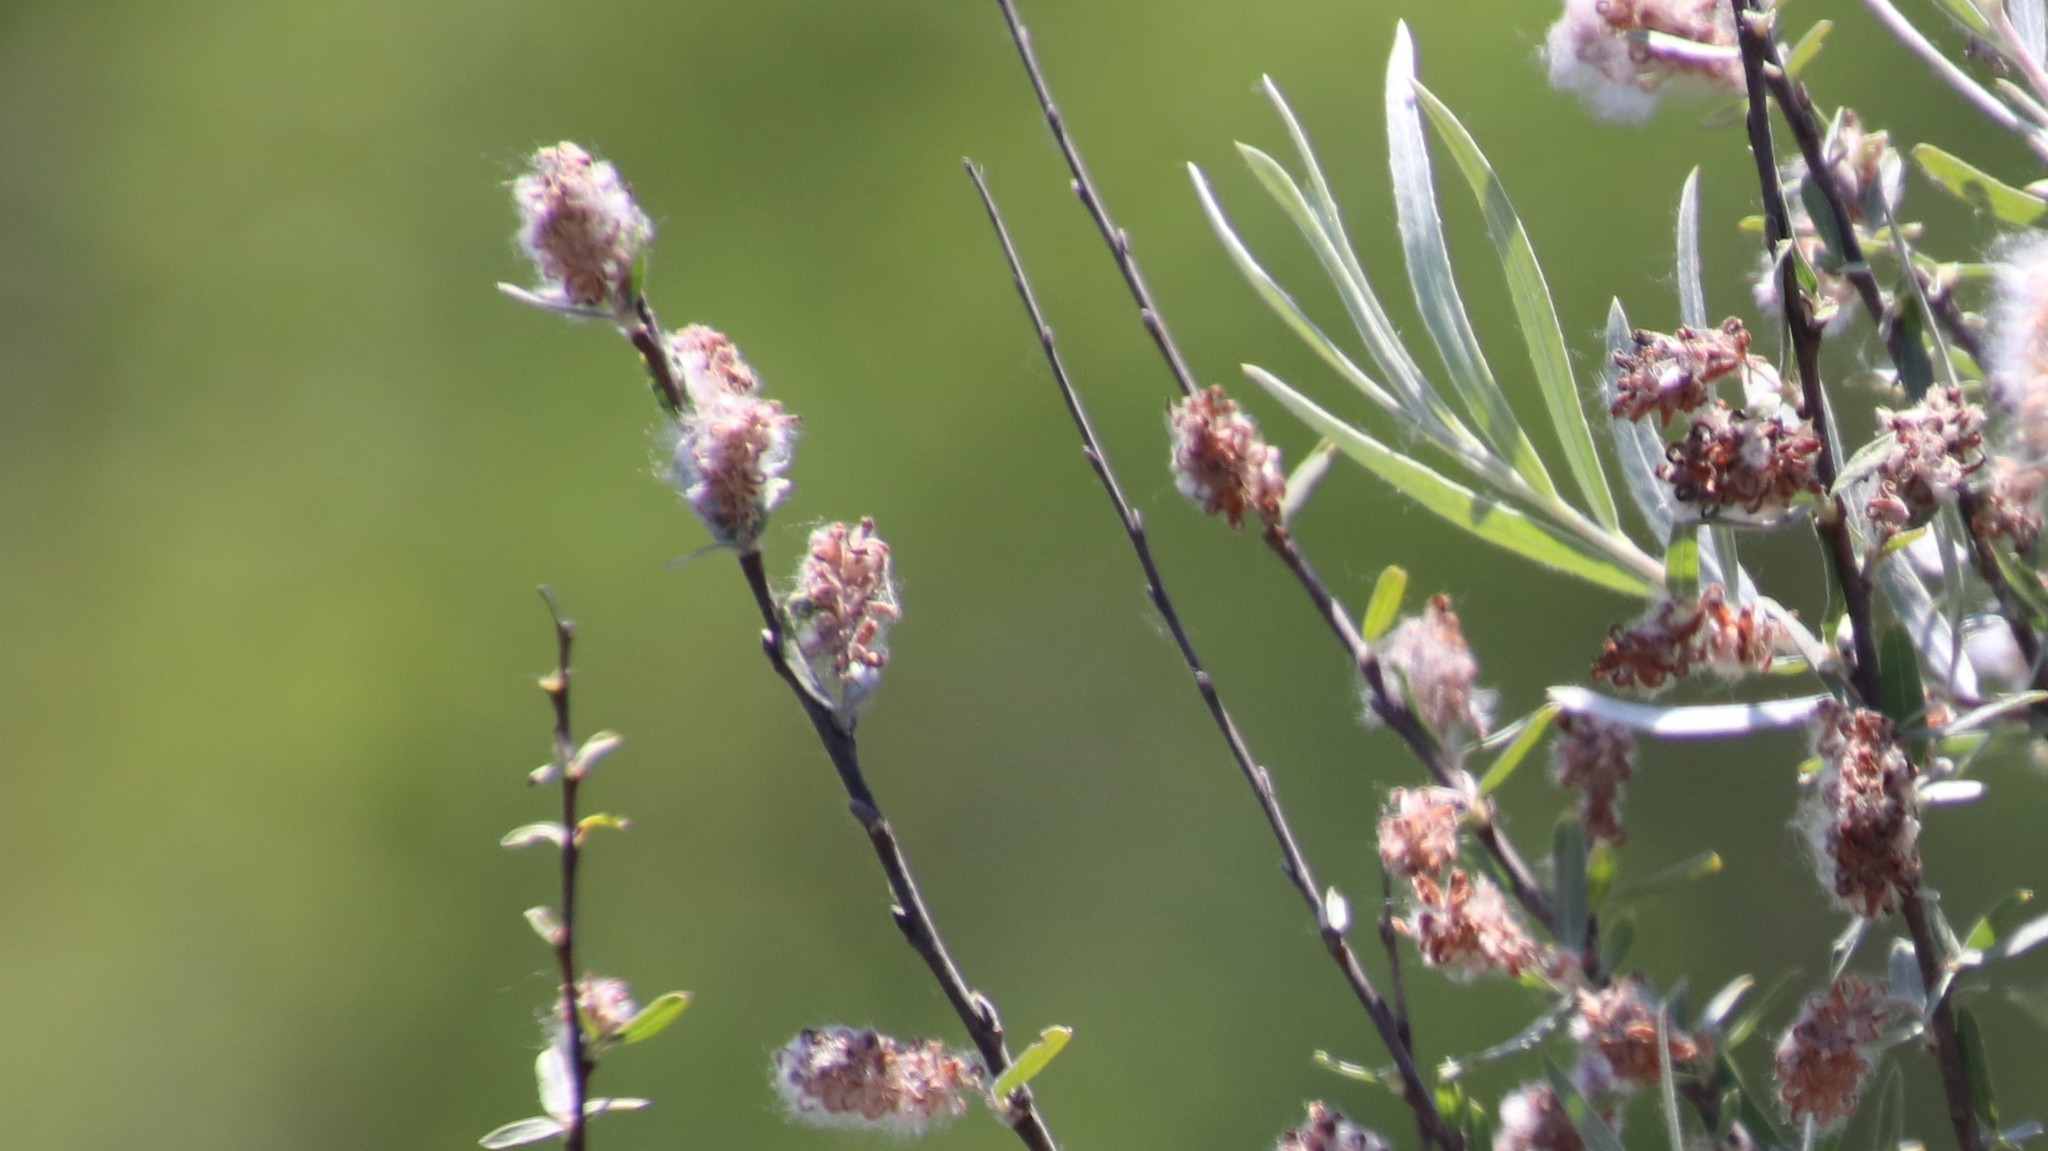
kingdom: Plantae
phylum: Tracheophyta
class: Magnoliopsida
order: Malpighiales
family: Salicaceae
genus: Salix
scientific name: Salix exigua
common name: Coyote willow
